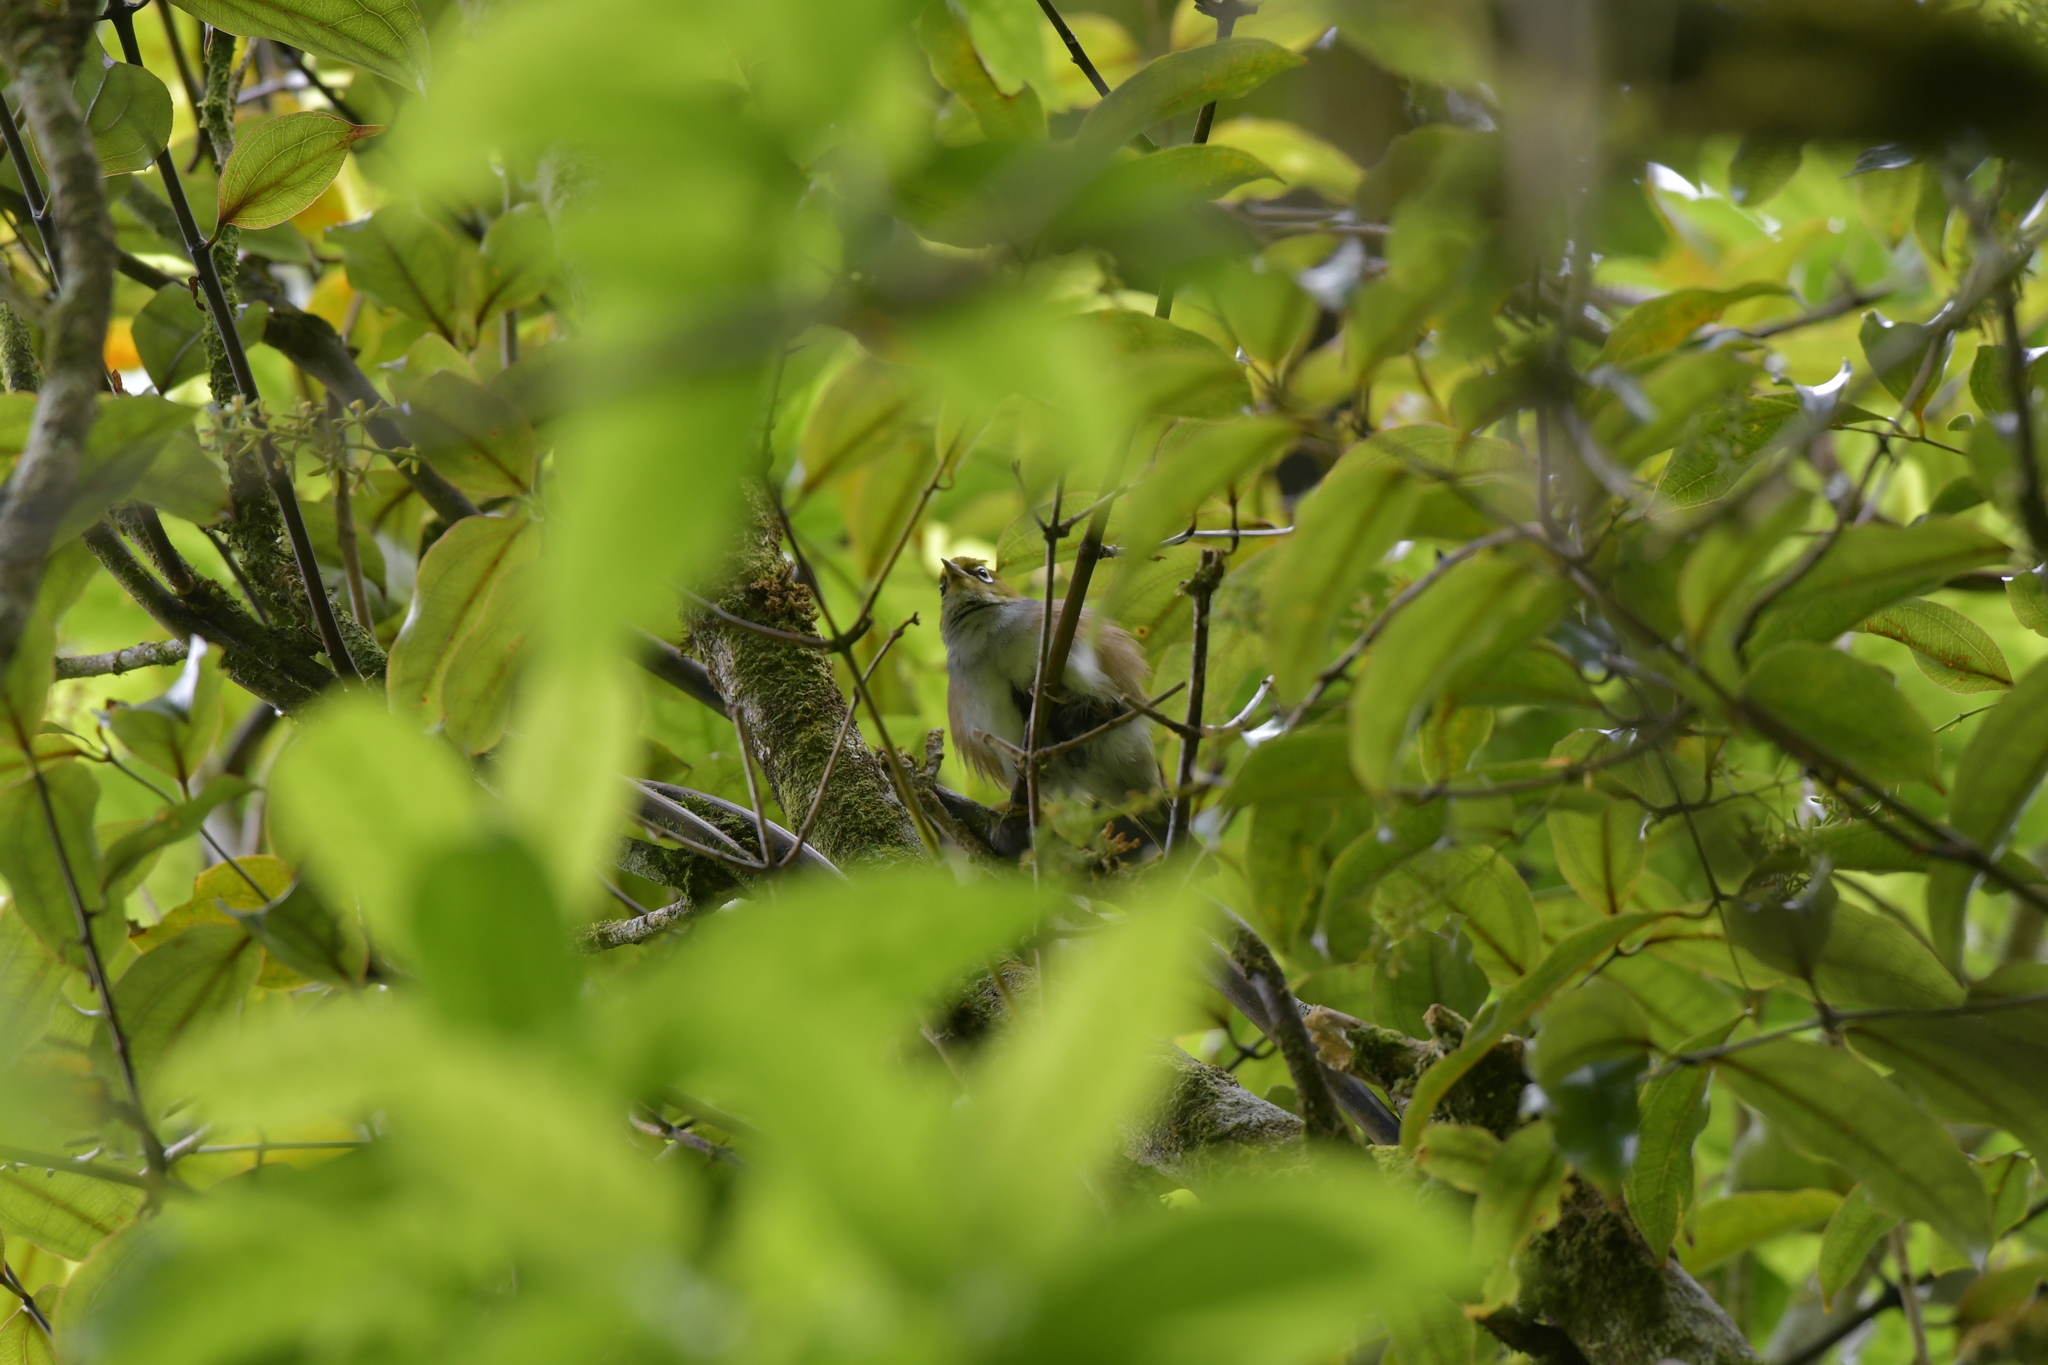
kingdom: Animalia
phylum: Chordata
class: Aves
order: Passeriformes
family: Zosteropidae
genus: Zosterops
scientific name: Zosterops lateralis
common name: Silvereye
